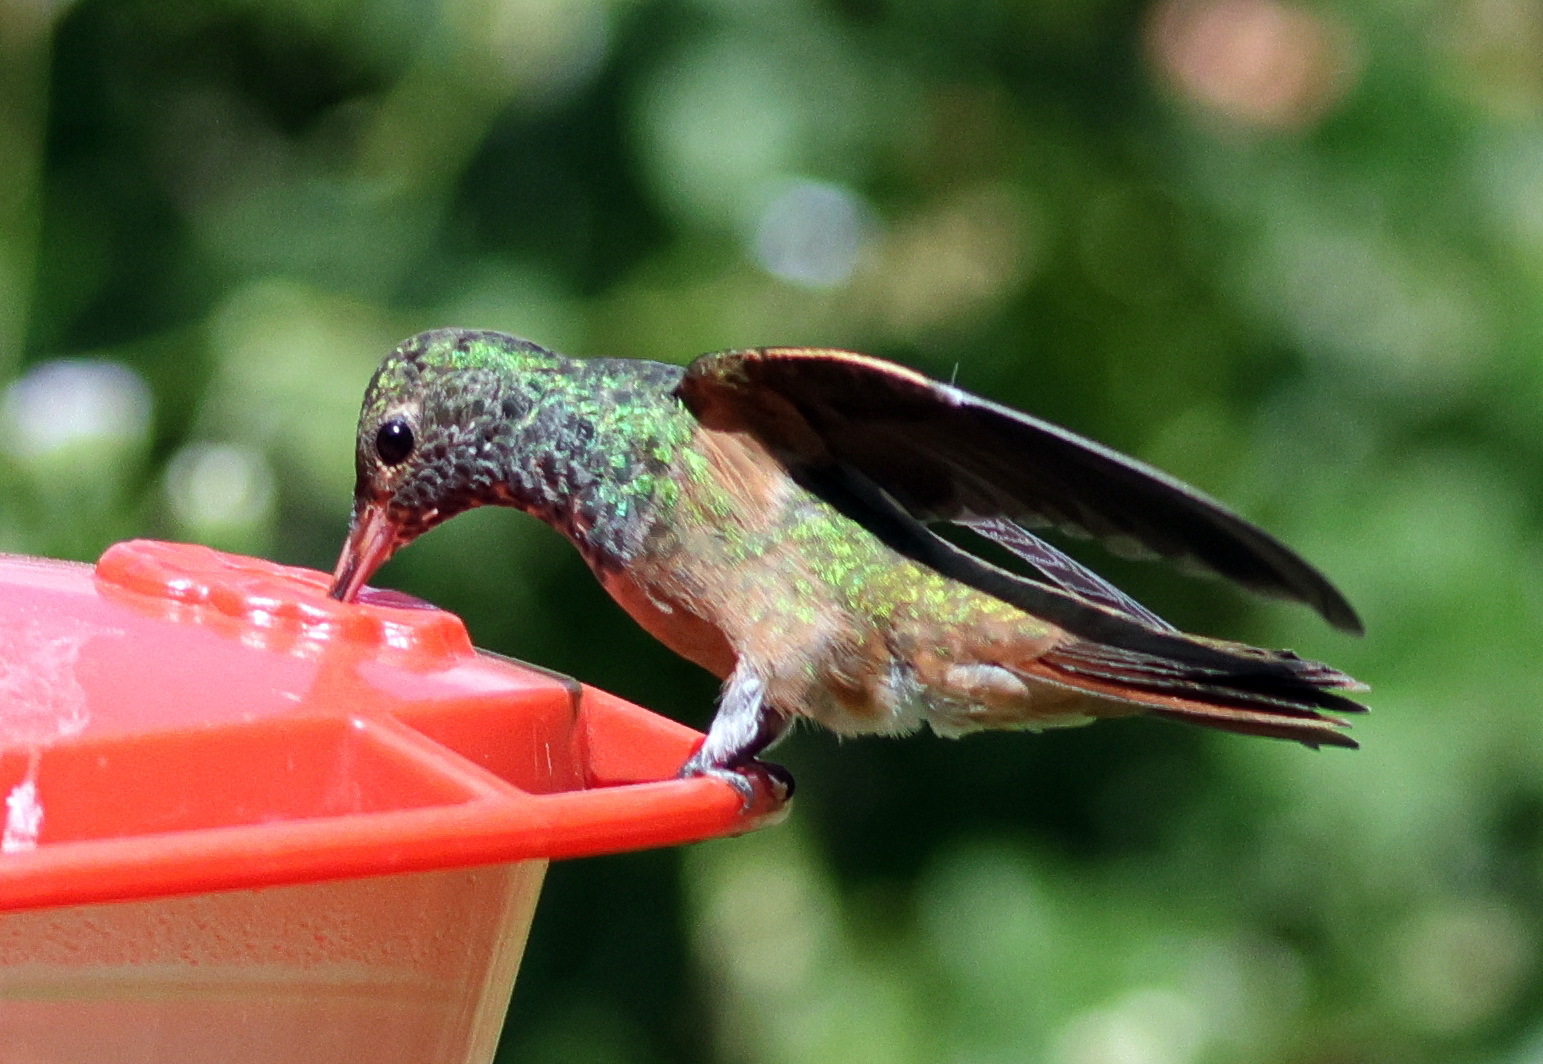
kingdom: Animalia
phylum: Chordata
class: Aves
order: Apodiformes
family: Trochilidae
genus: Amazilia
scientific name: Amazilia yucatanensis
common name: Buff-bellied hummingbird
